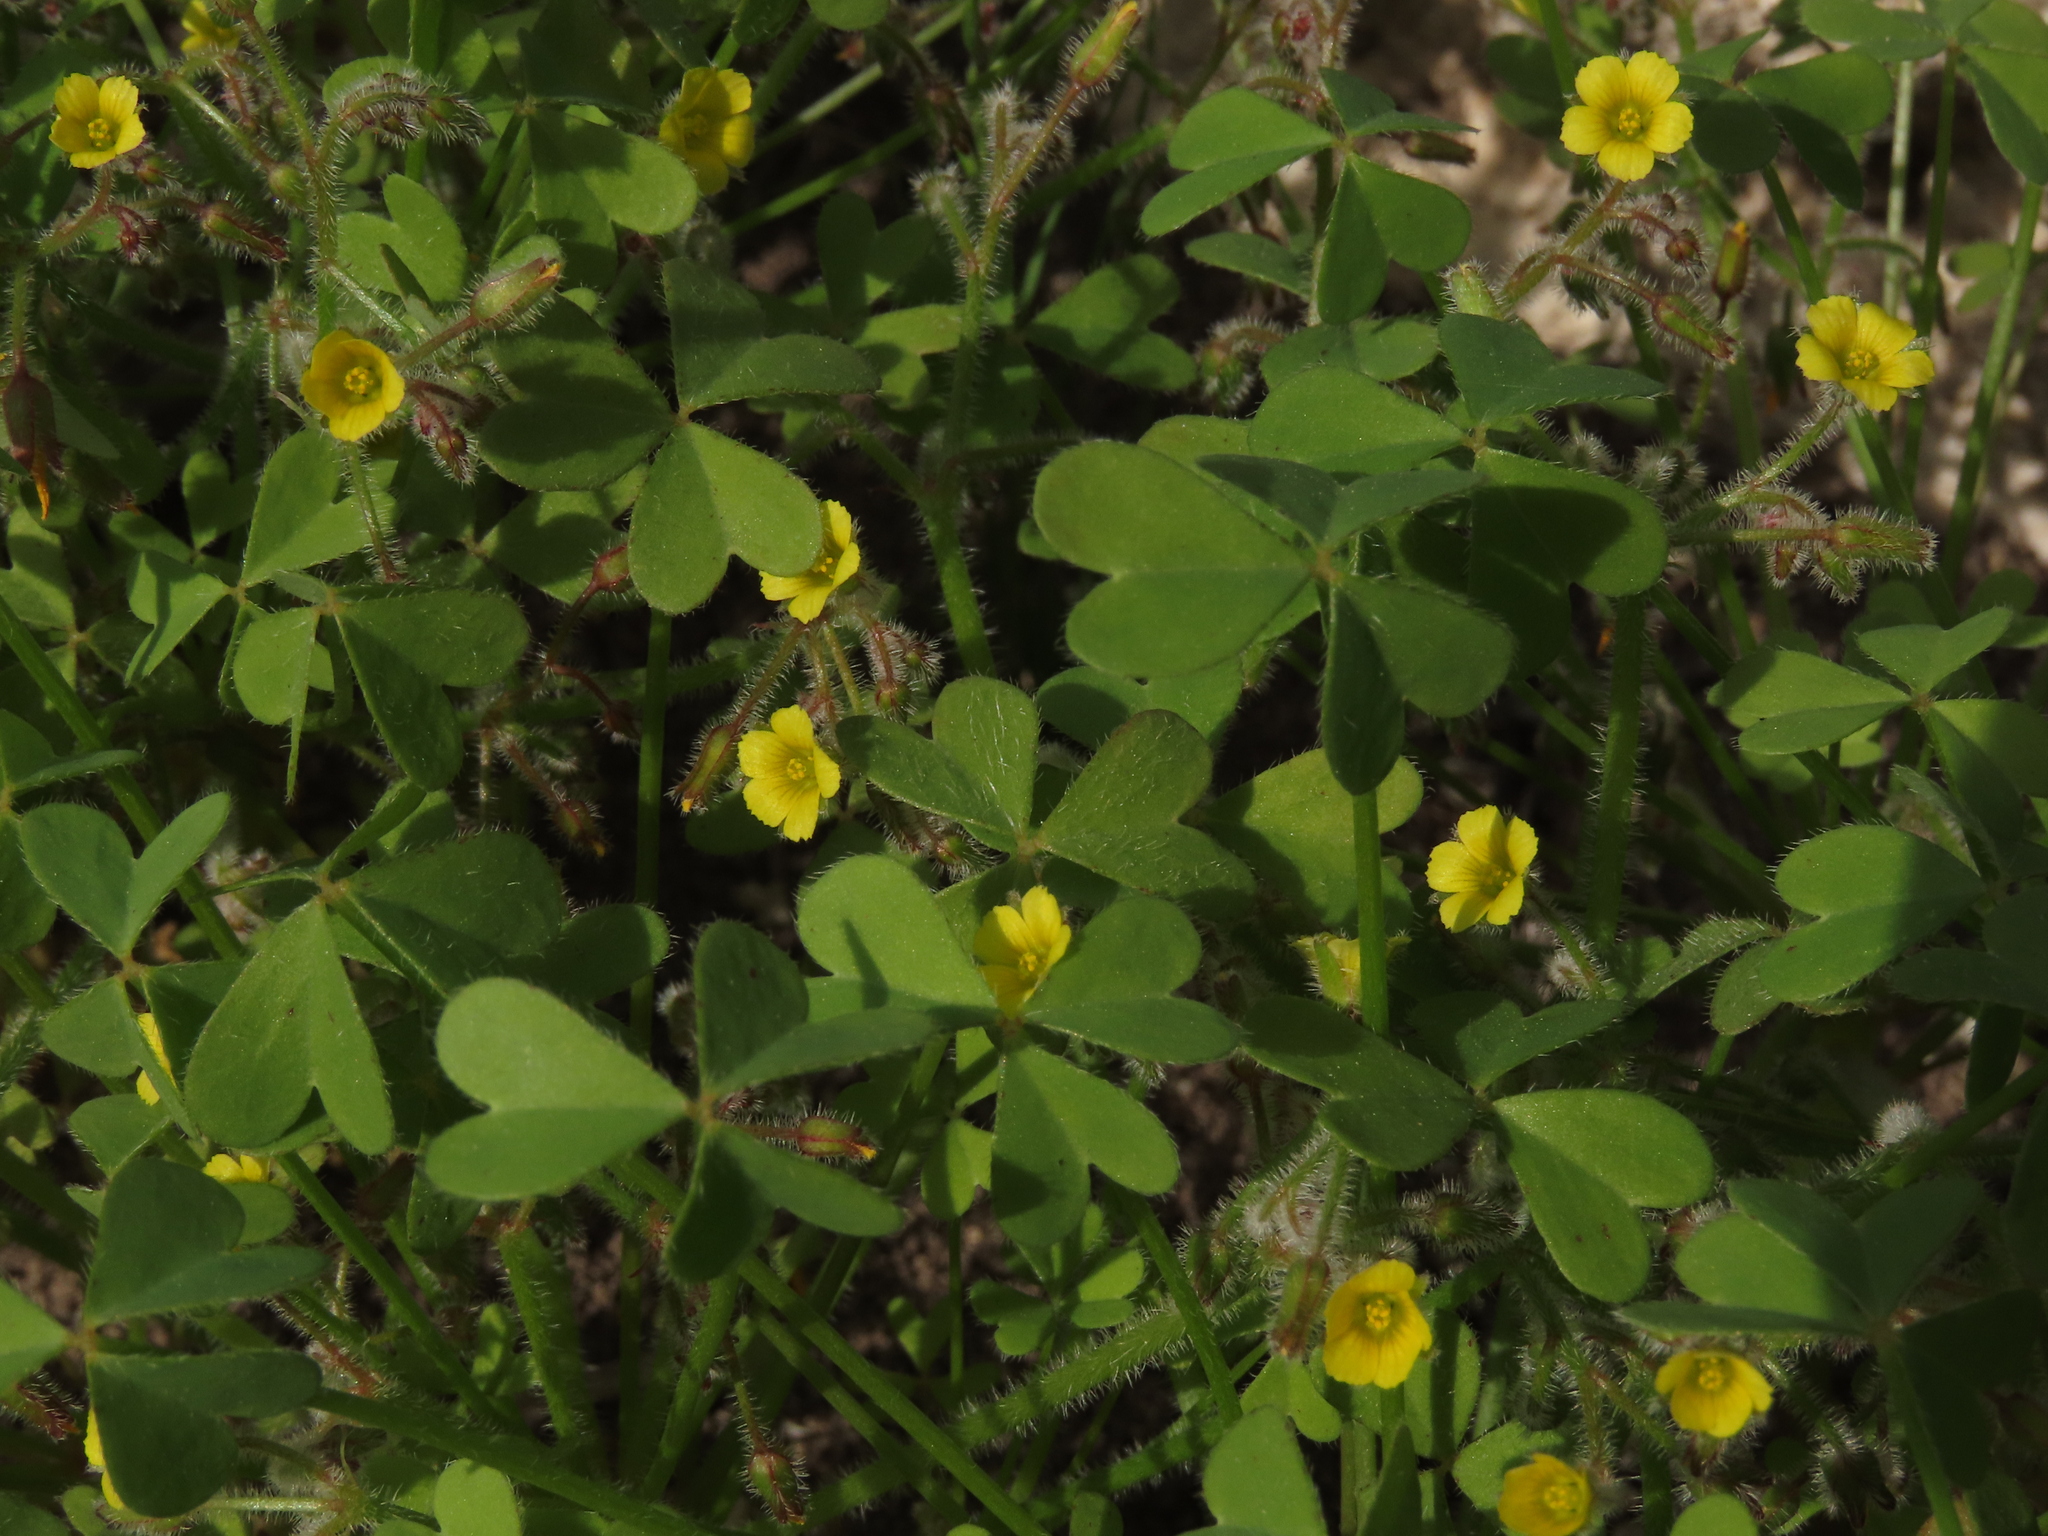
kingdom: Plantae
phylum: Tracheophyta
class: Magnoliopsida
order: Oxalidales
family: Oxalidaceae
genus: Oxalis
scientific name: Oxalis micrantha
